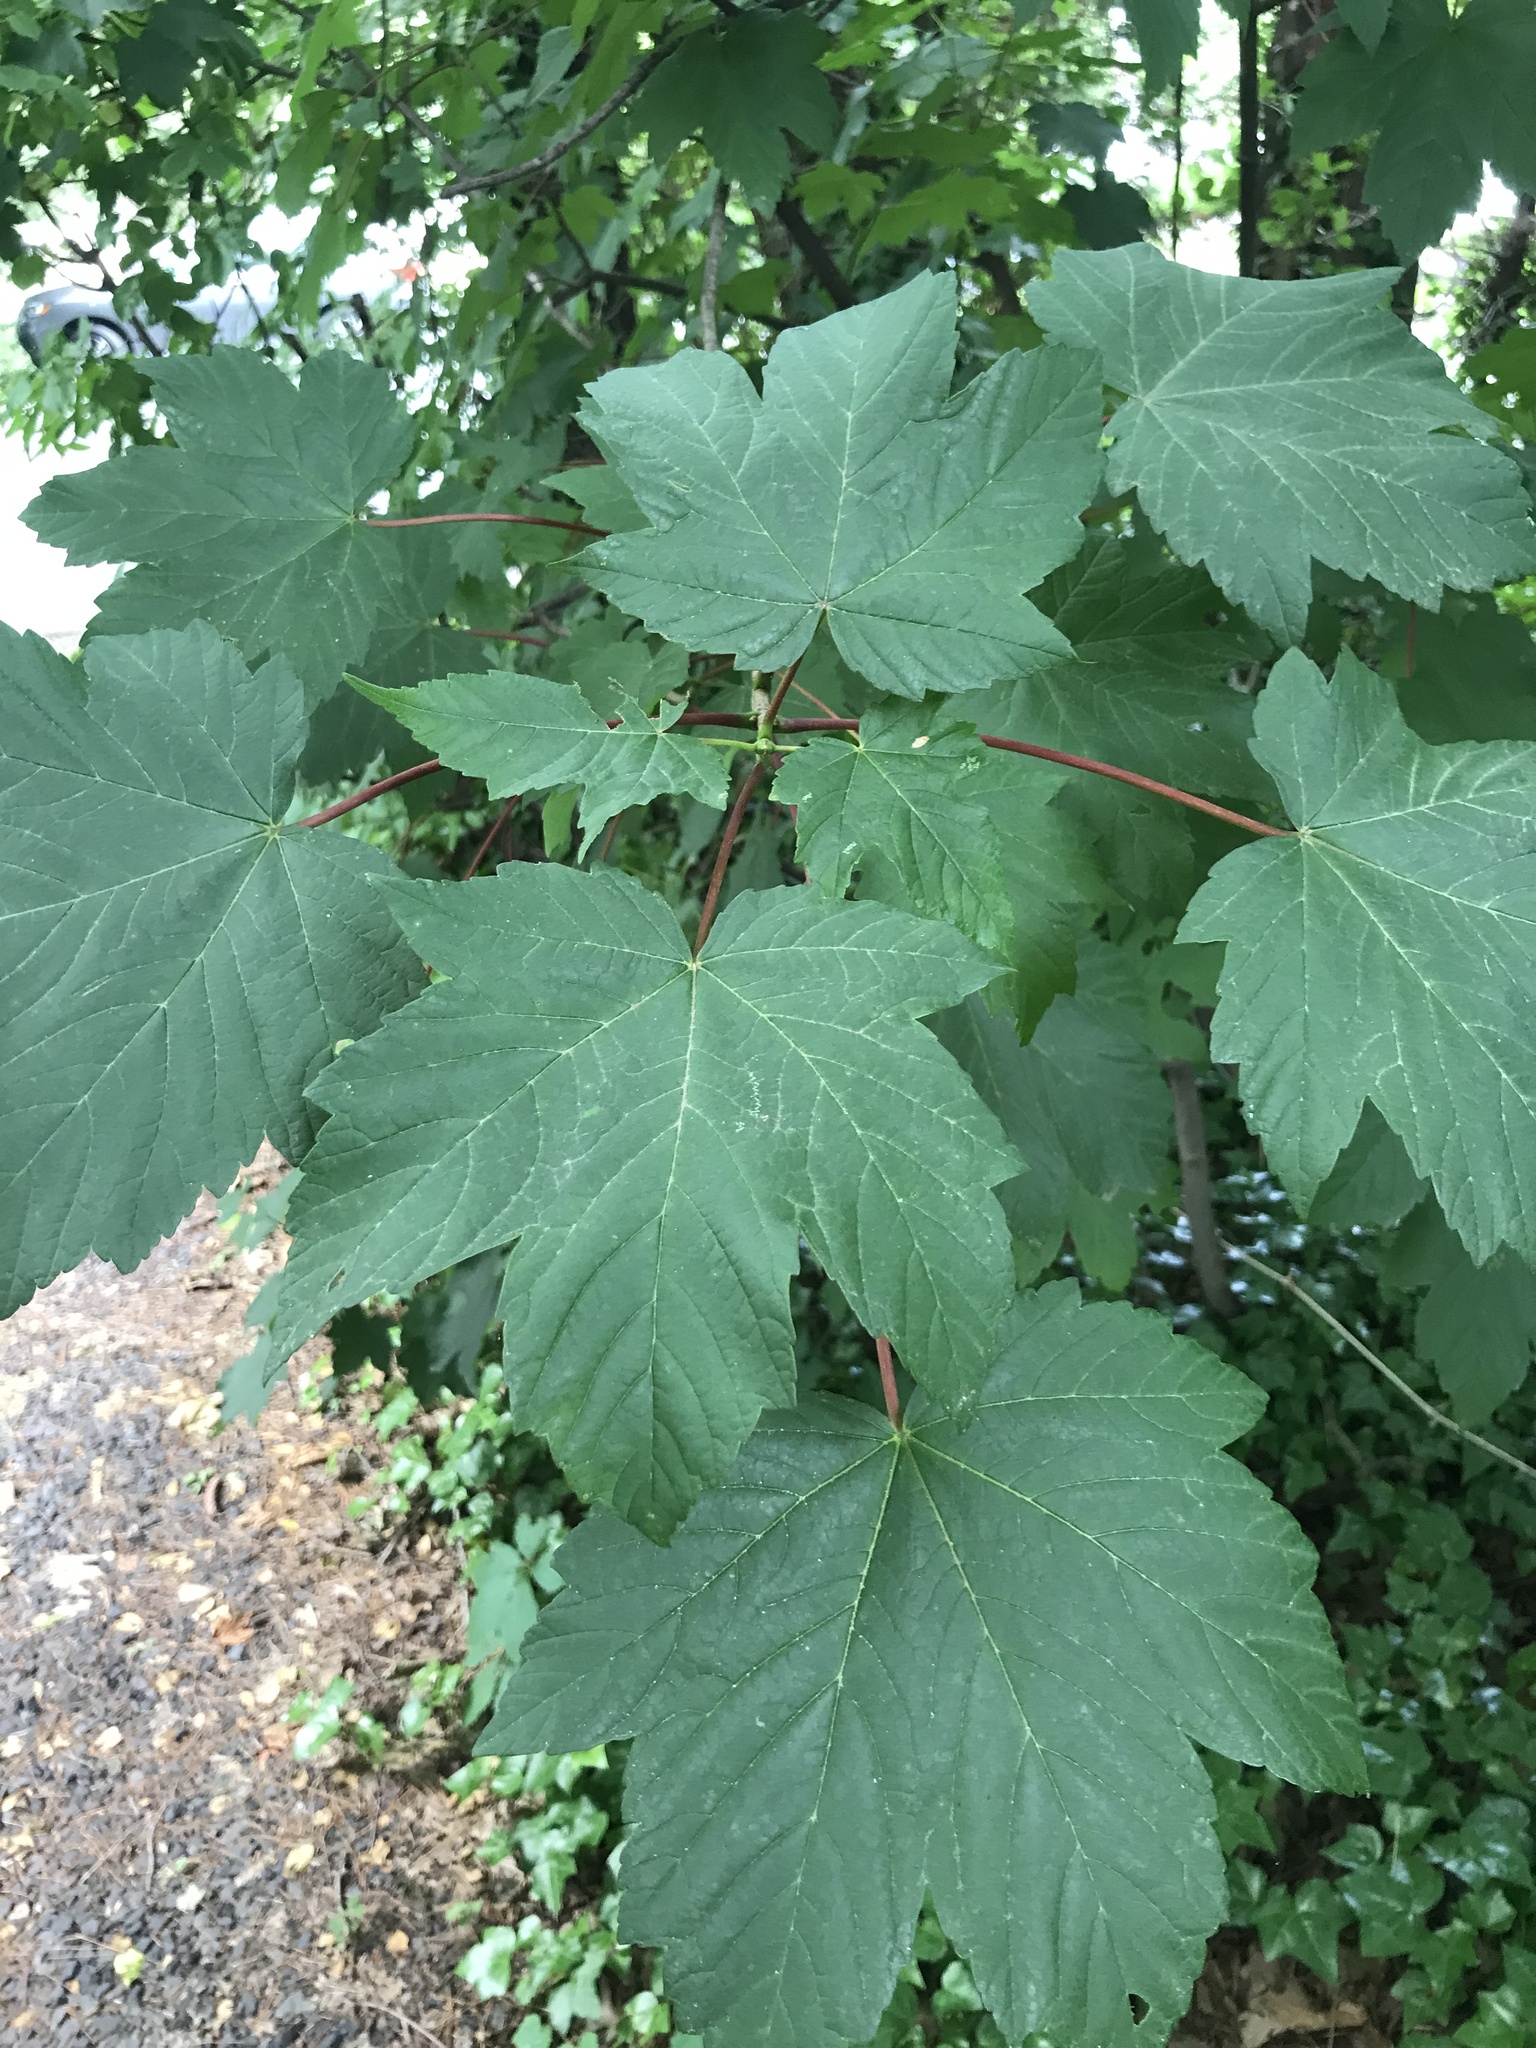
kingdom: Plantae
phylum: Tracheophyta
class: Magnoliopsida
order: Sapindales
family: Sapindaceae
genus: Acer
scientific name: Acer pseudoplatanus
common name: Sycamore
